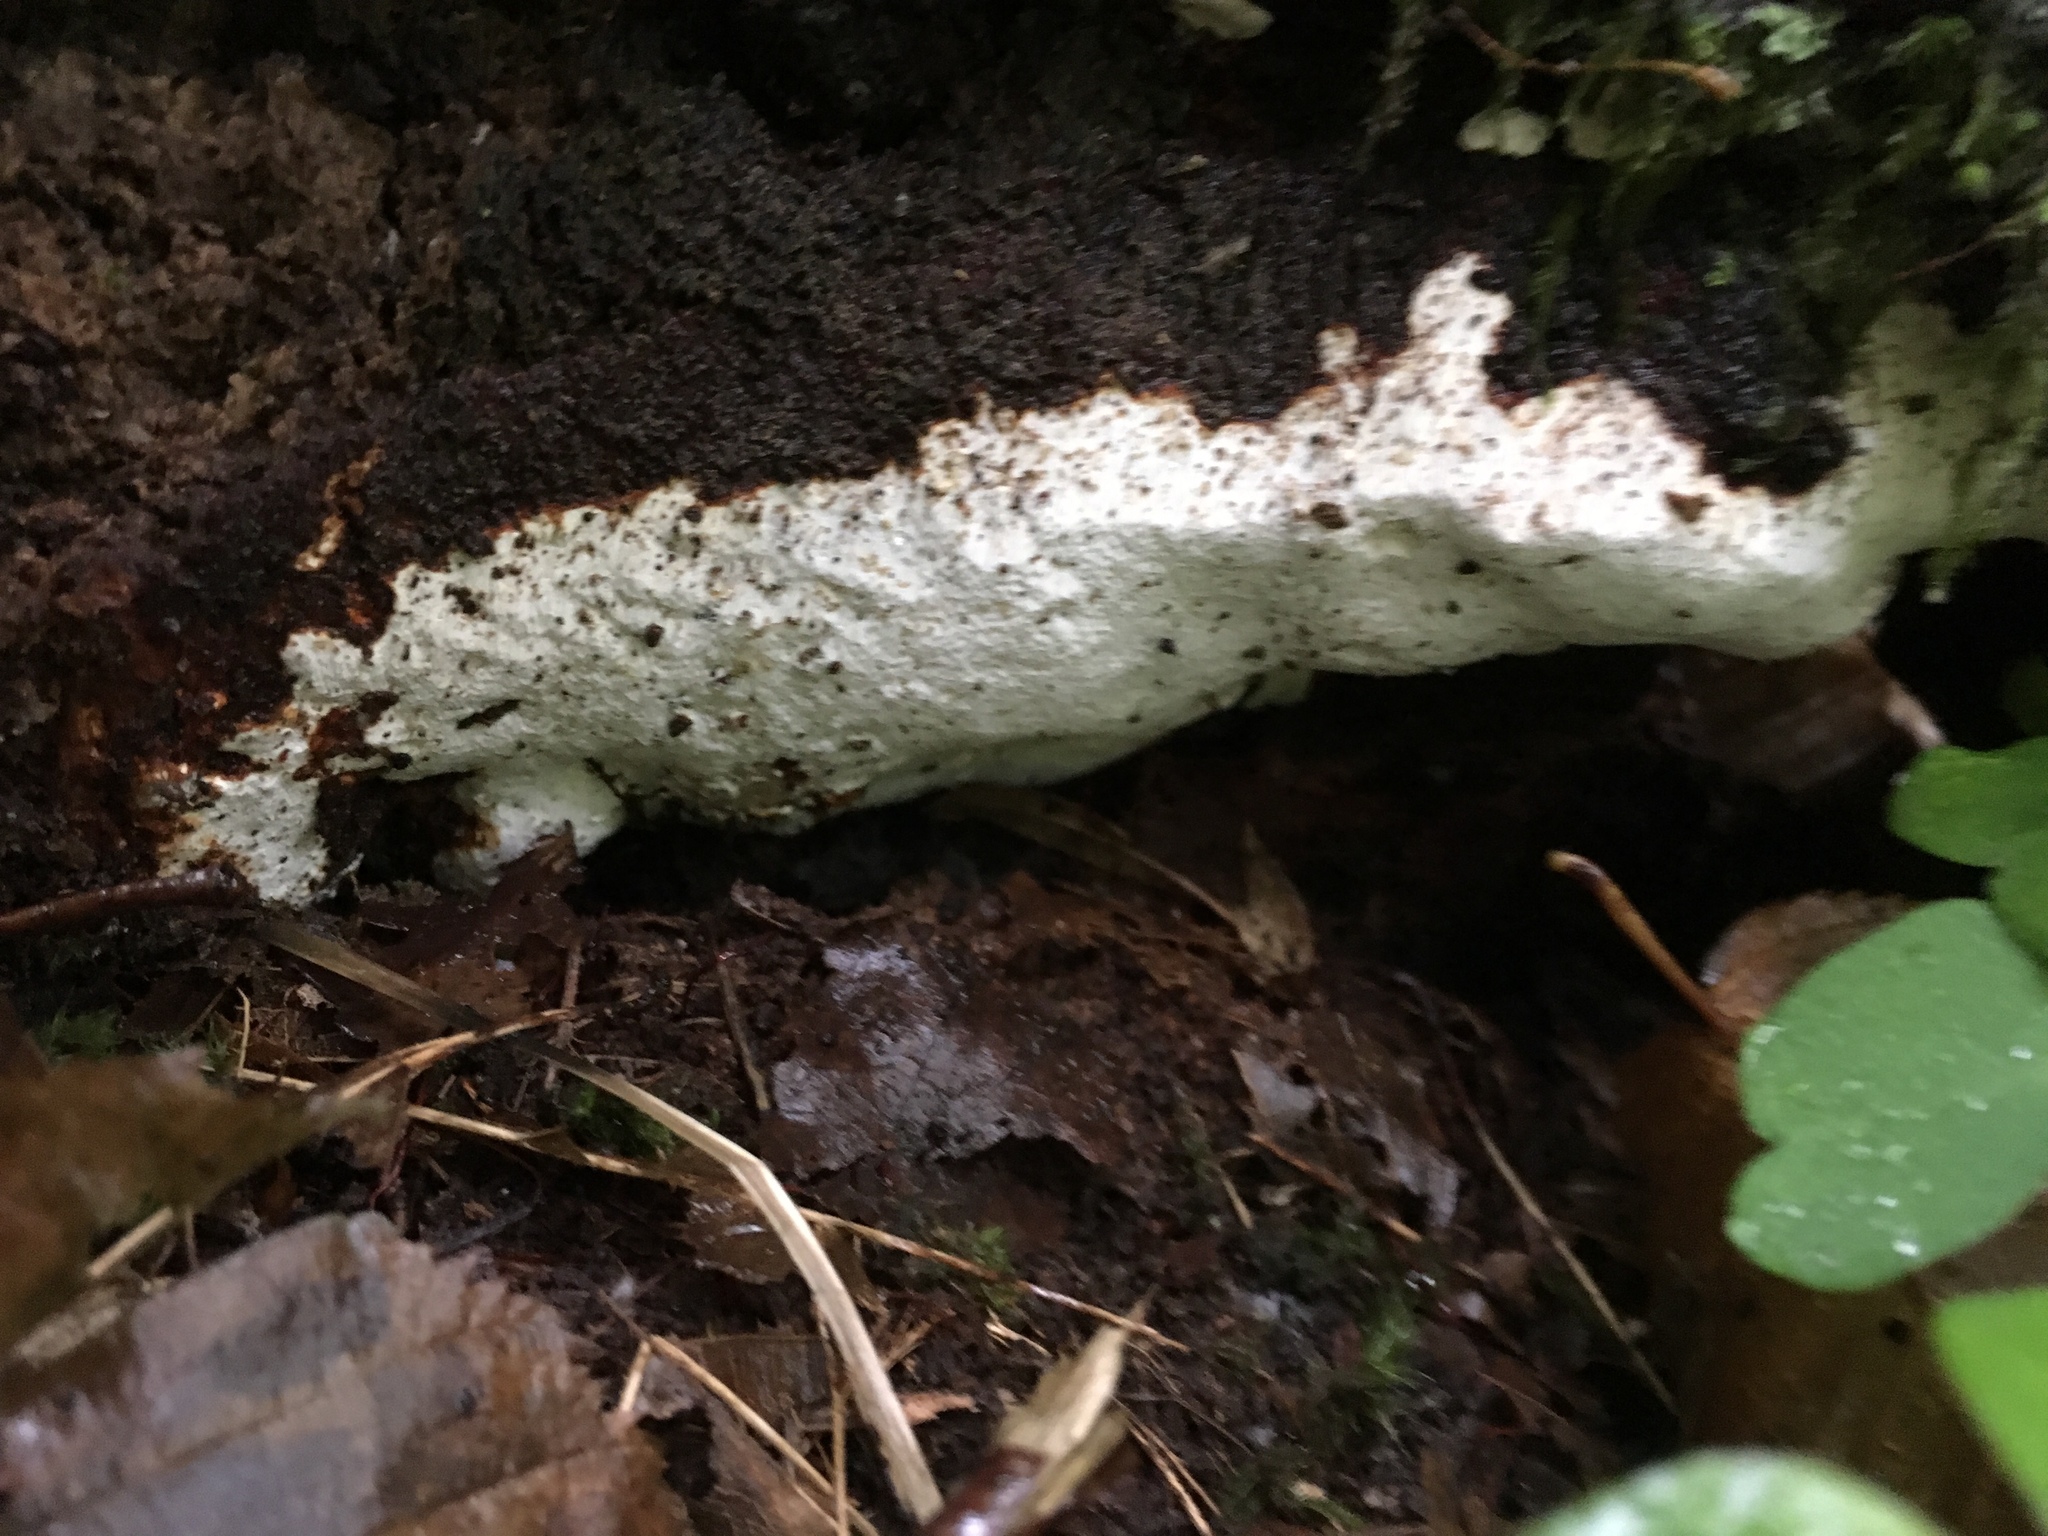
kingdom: Fungi
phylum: Basidiomycota
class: Agaricomycetes
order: Polyporales
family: Polyporaceae
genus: Perenniporia
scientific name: Perenniporia medulla-panis
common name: Pancake crust
